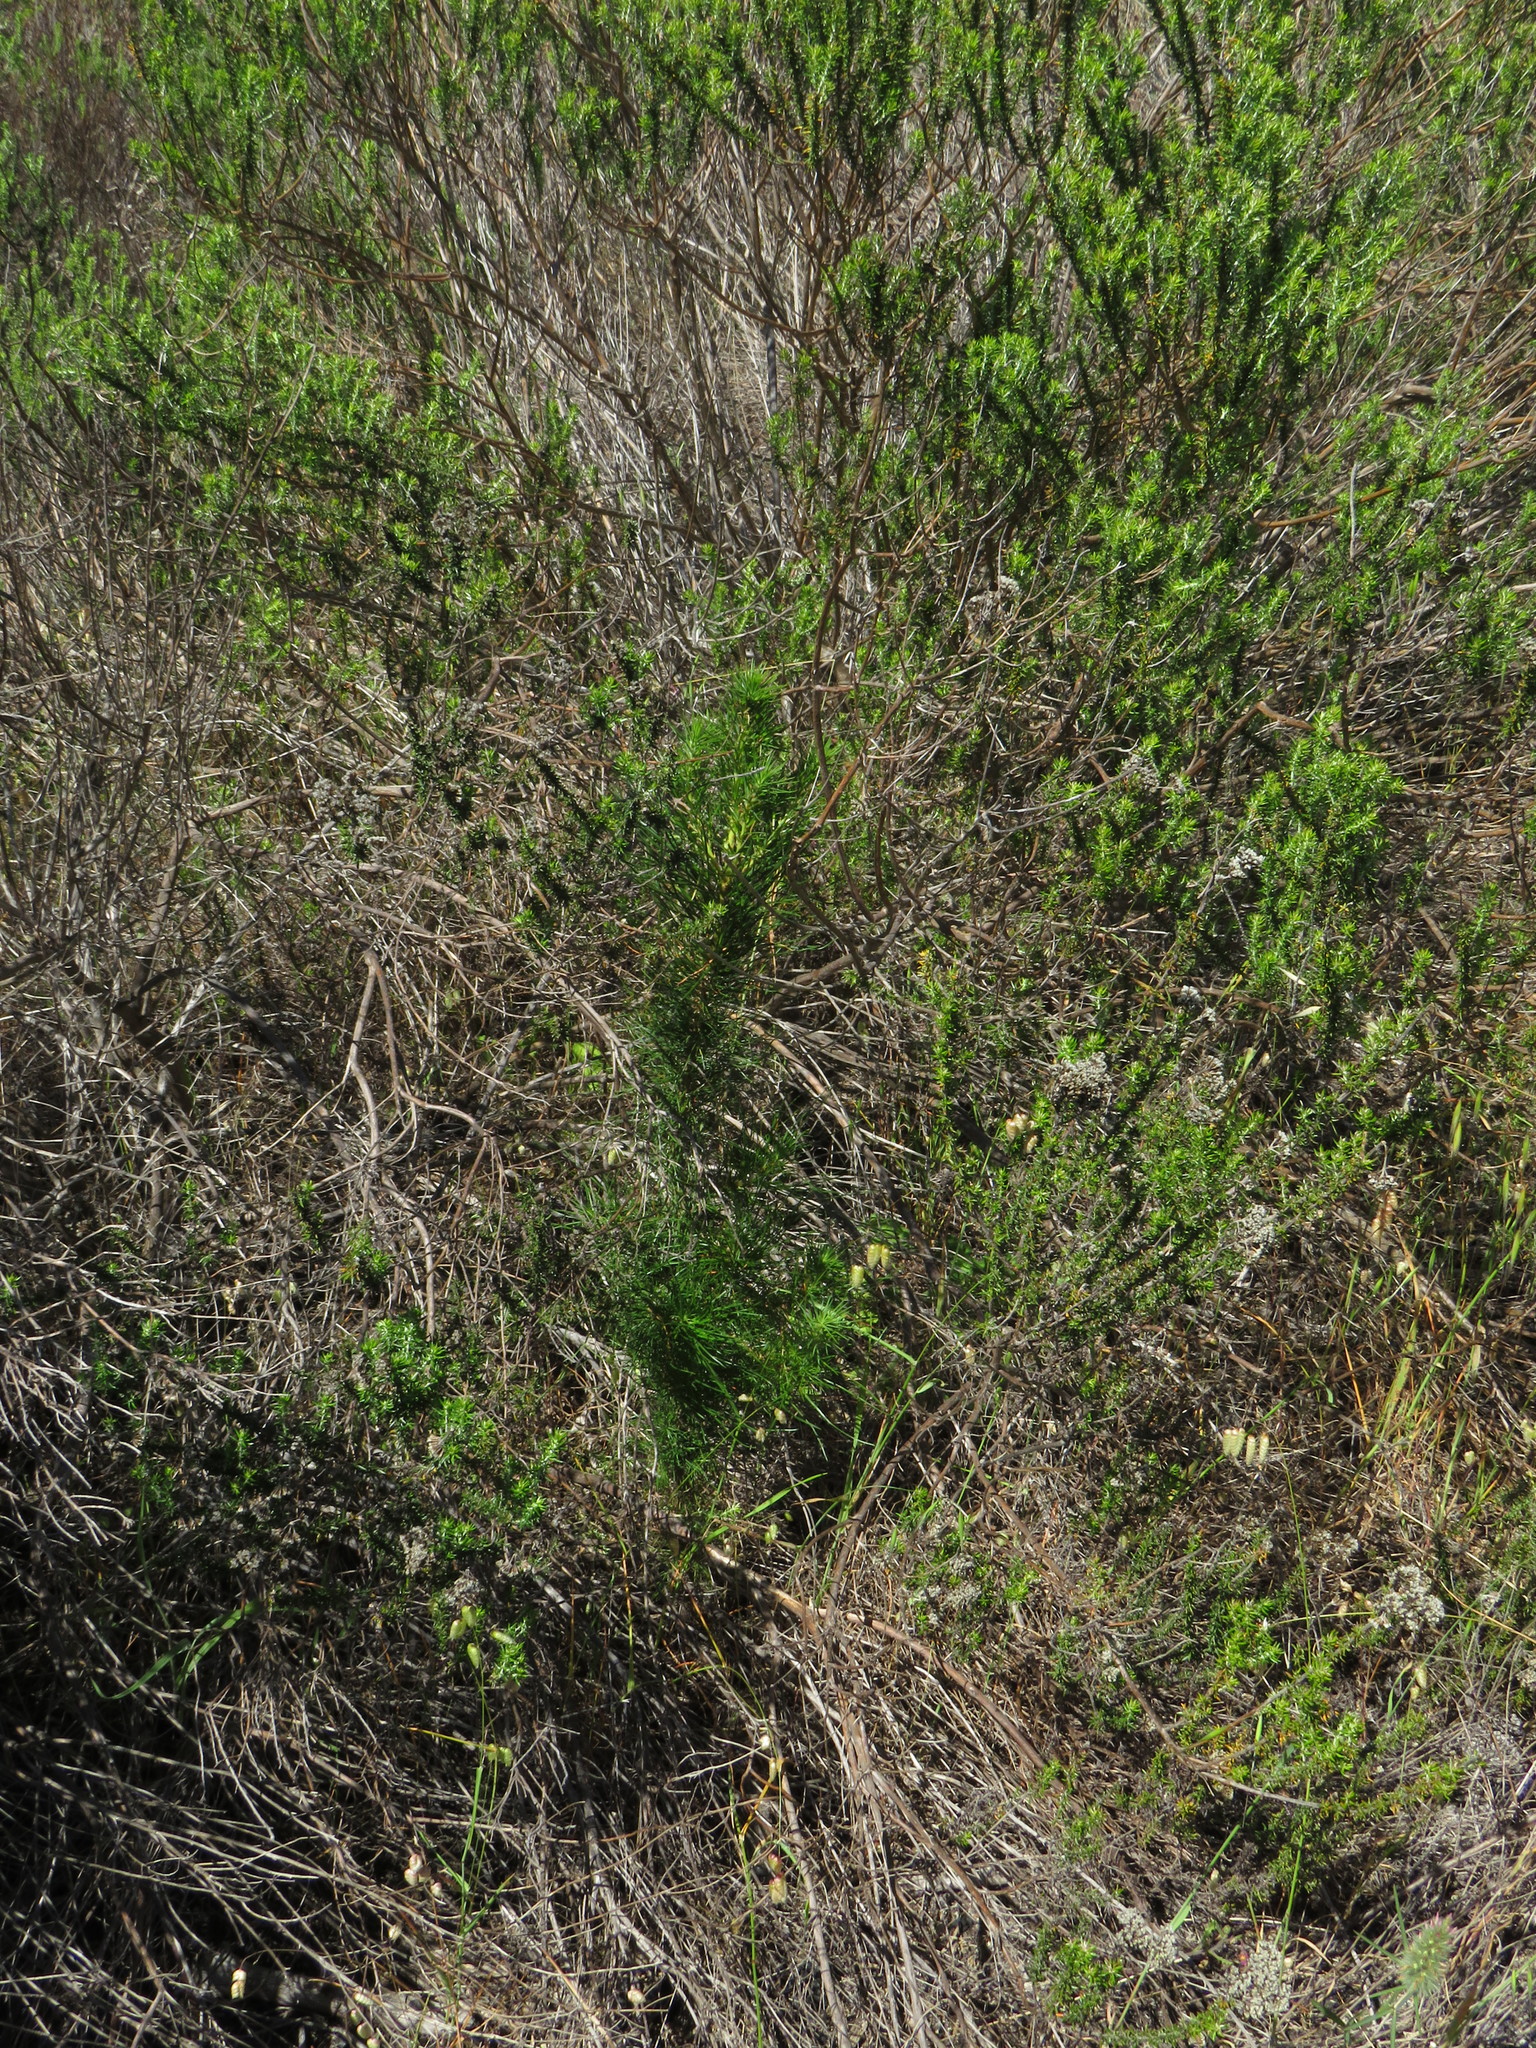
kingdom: Plantae
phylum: Tracheophyta
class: Pinopsida
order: Pinales
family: Pinaceae
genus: Pinus
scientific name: Pinus radiata
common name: Monterey pine
